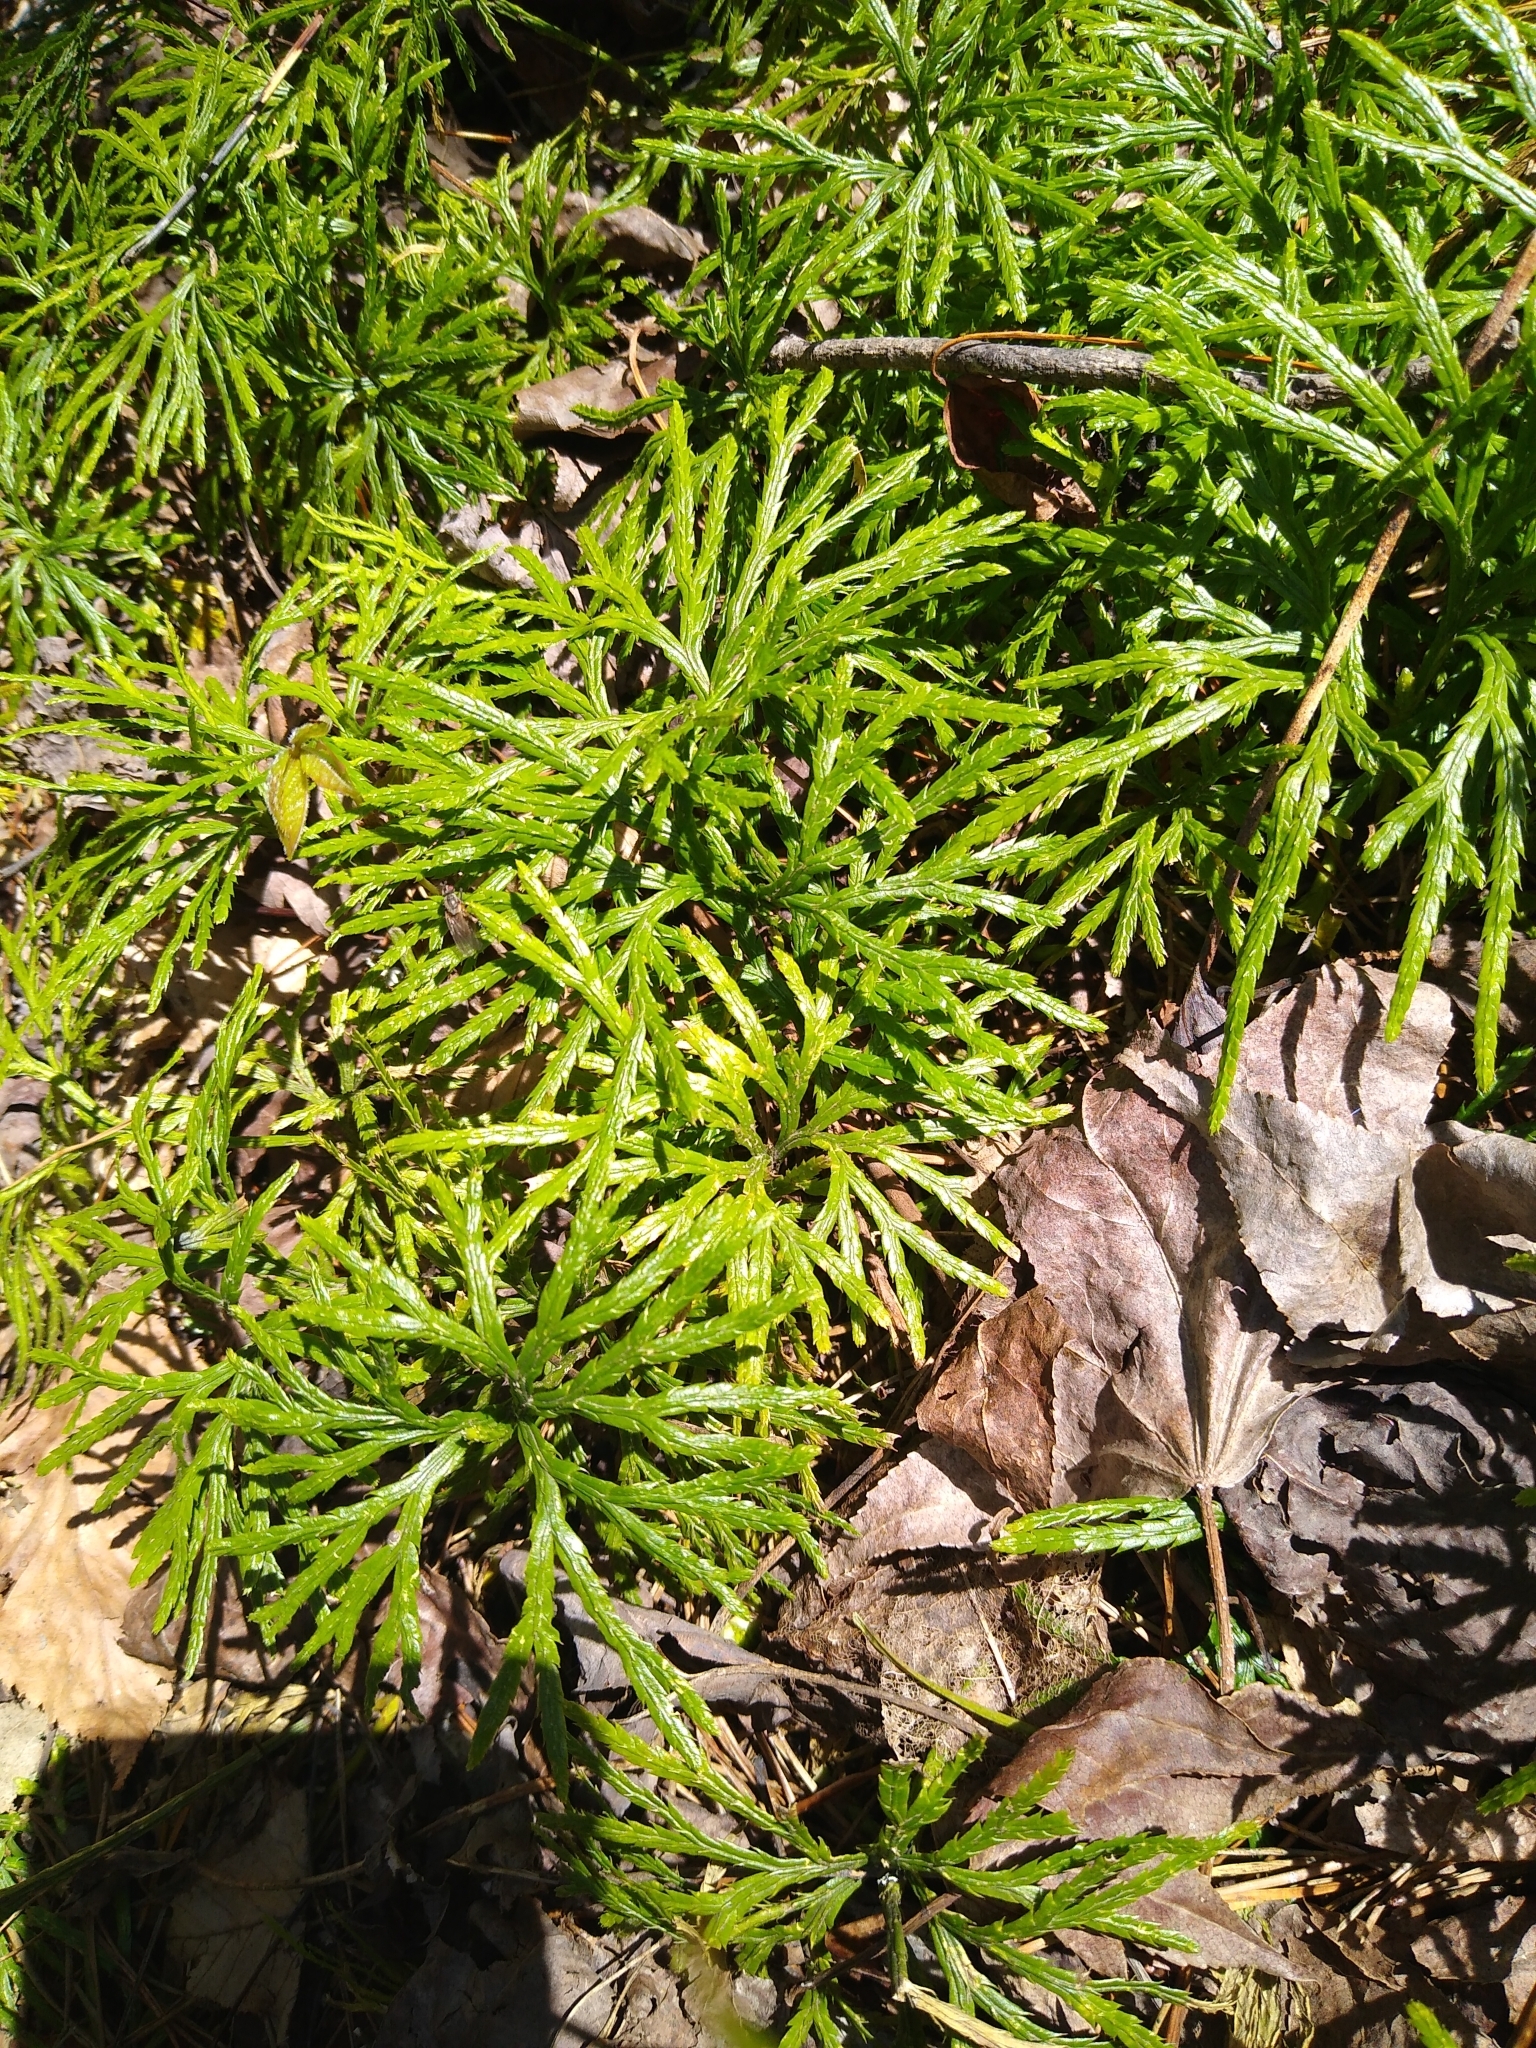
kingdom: Plantae
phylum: Tracheophyta
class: Lycopodiopsida
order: Lycopodiales
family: Lycopodiaceae
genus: Diphasiastrum
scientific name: Diphasiastrum digitatum
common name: Southern running-pine
